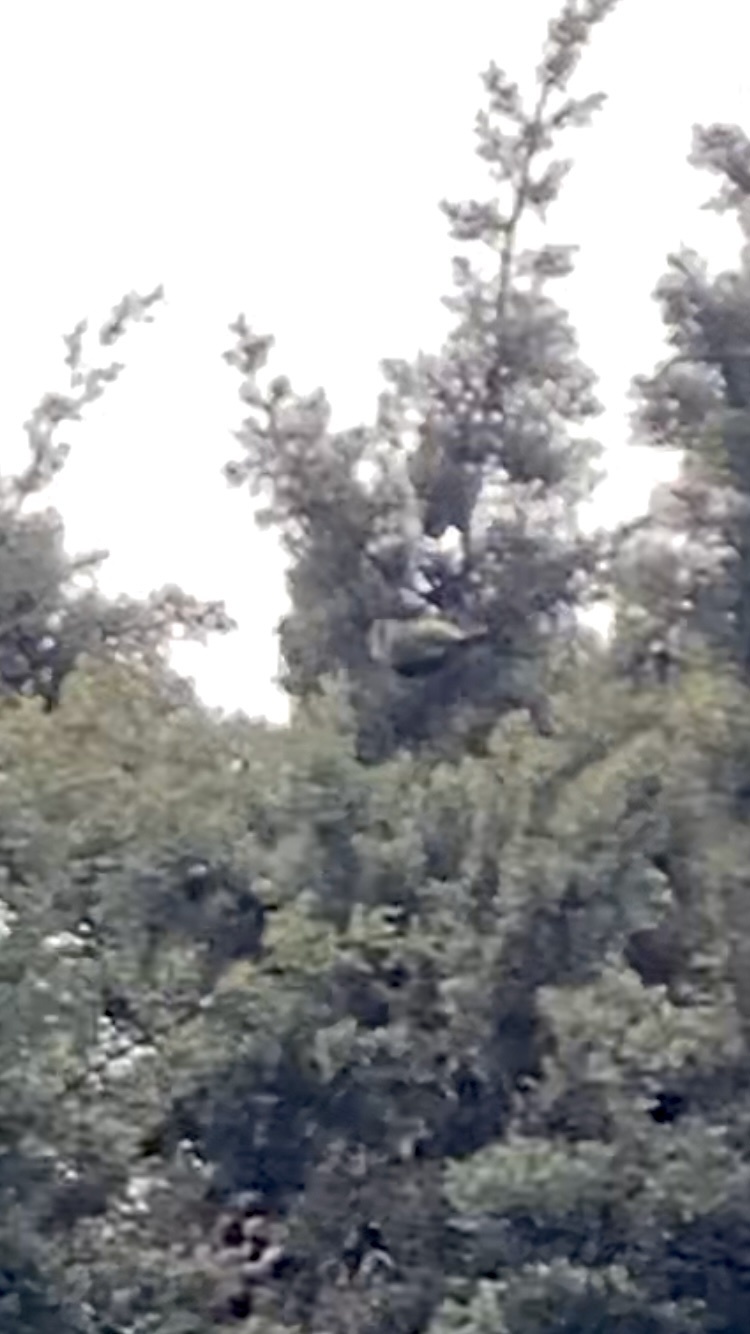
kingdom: Animalia
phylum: Chordata
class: Aves
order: Passeriformes
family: Paridae
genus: Cyanistes
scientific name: Cyanistes caeruleus
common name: Eurasian blue tit
